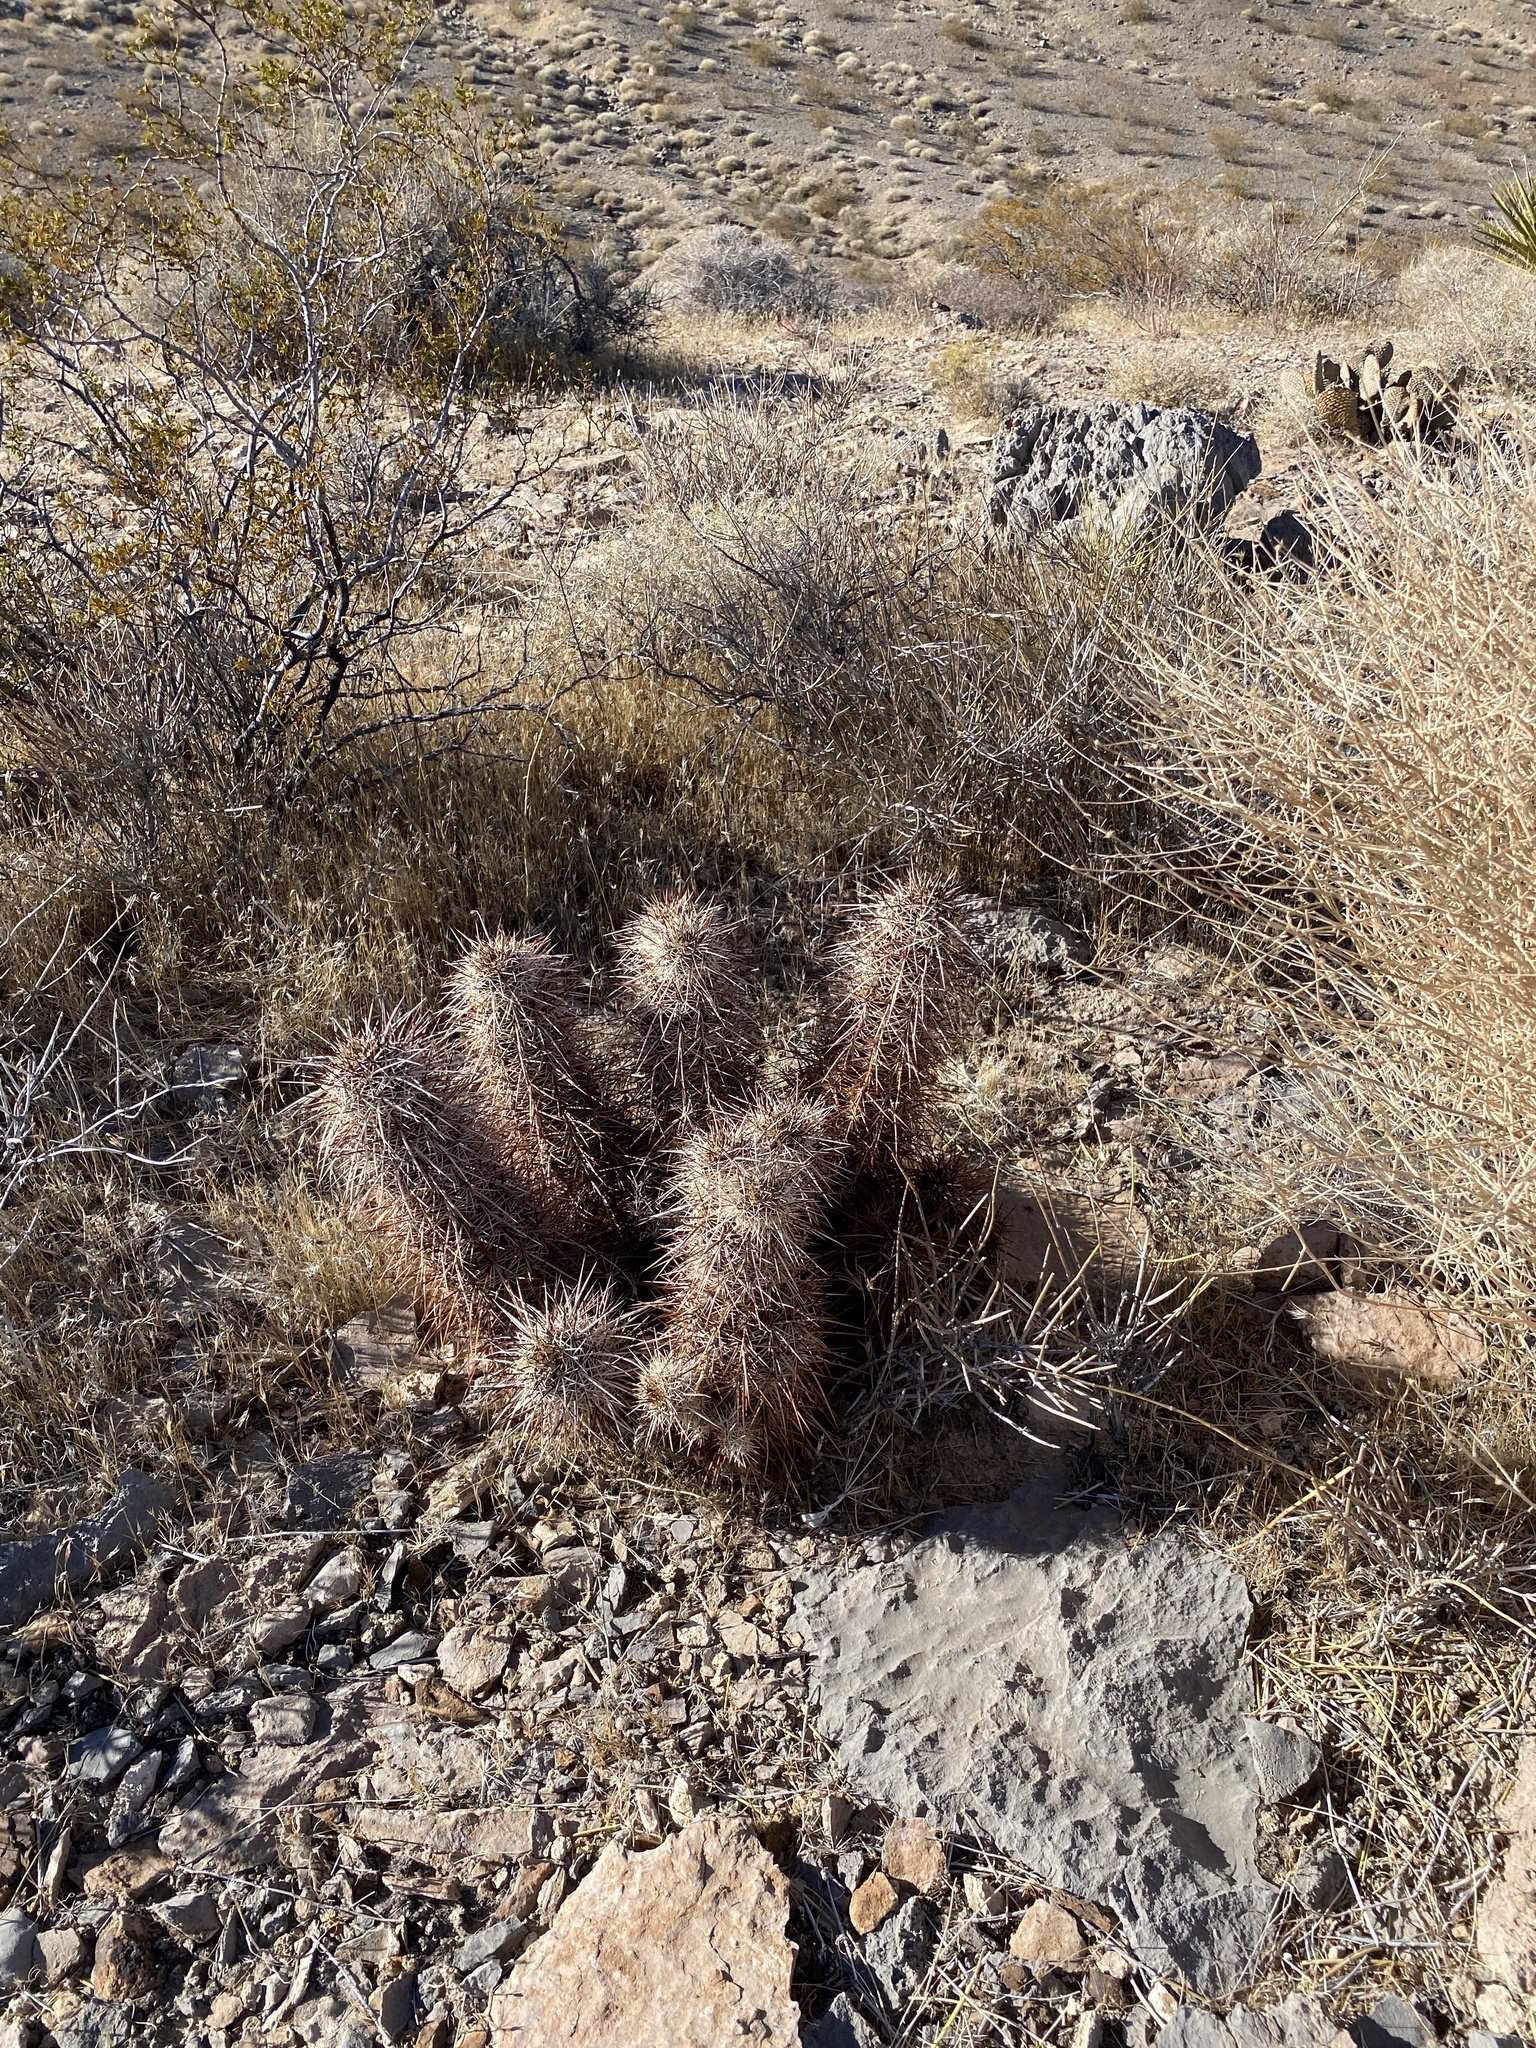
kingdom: Plantae
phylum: Tracheophyta
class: Magnoliopsida
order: Caryophyllales
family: Cactaceae
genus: Echinocereus
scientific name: Echinocereus engelmannii
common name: Engelmann's hedgehog cactus
